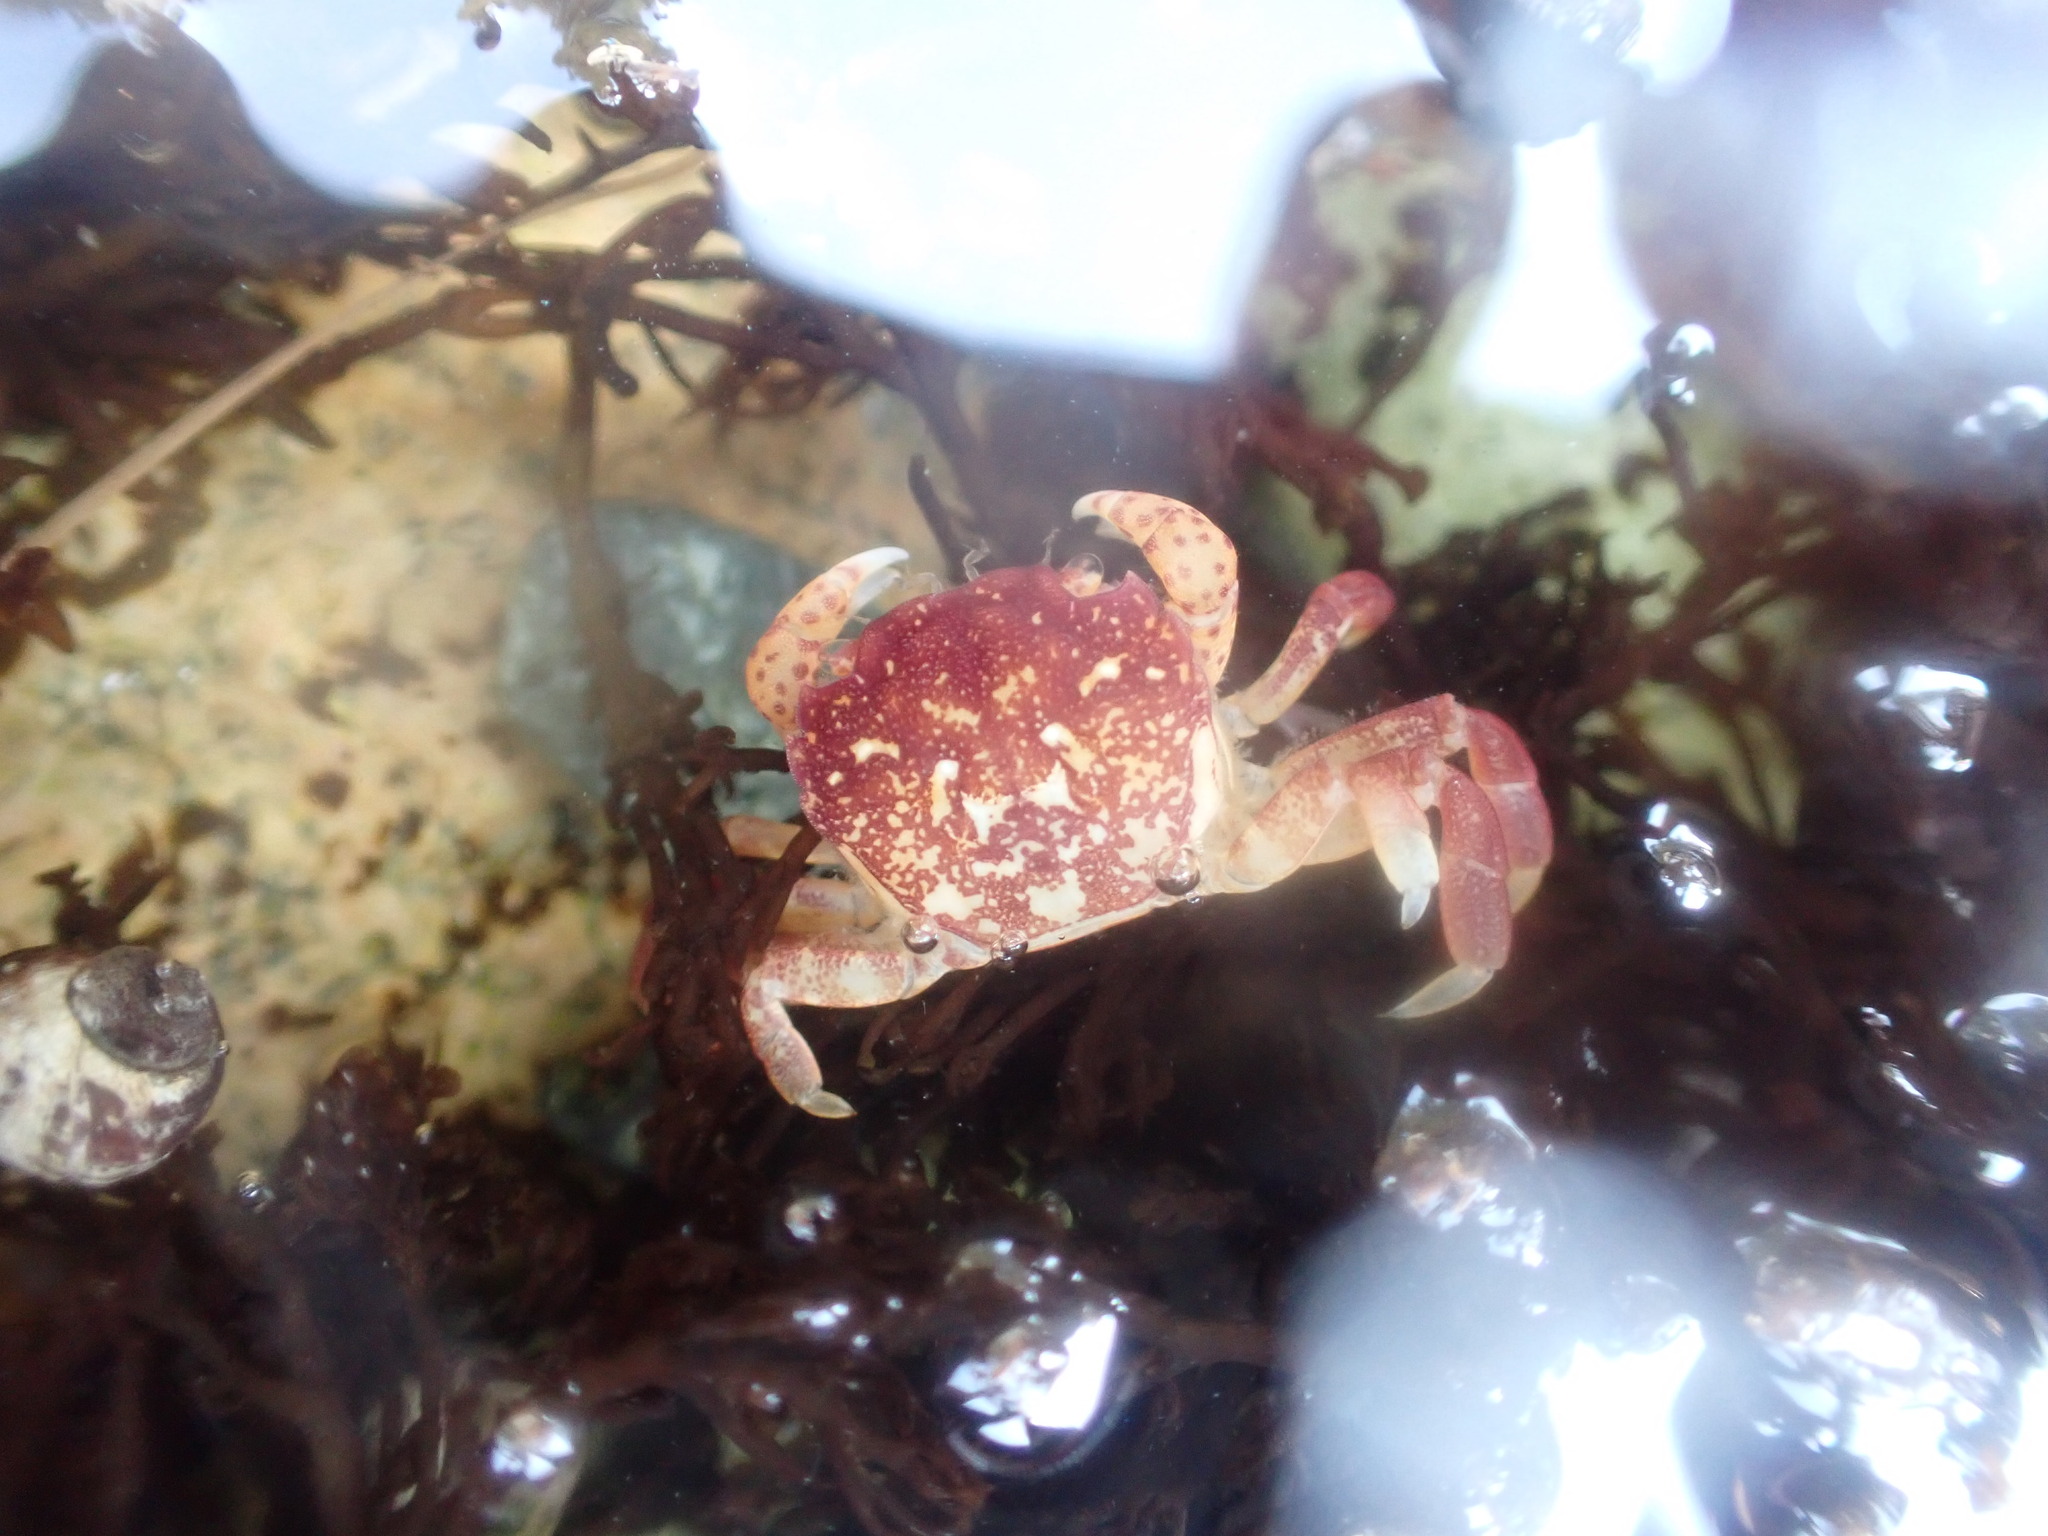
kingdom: Animalia
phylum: Arthropoda
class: Malacostraca
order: Decapoda
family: Varunidae
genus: Hemigrapsus
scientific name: Hemigrapsus nudus
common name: Purple shore crab
